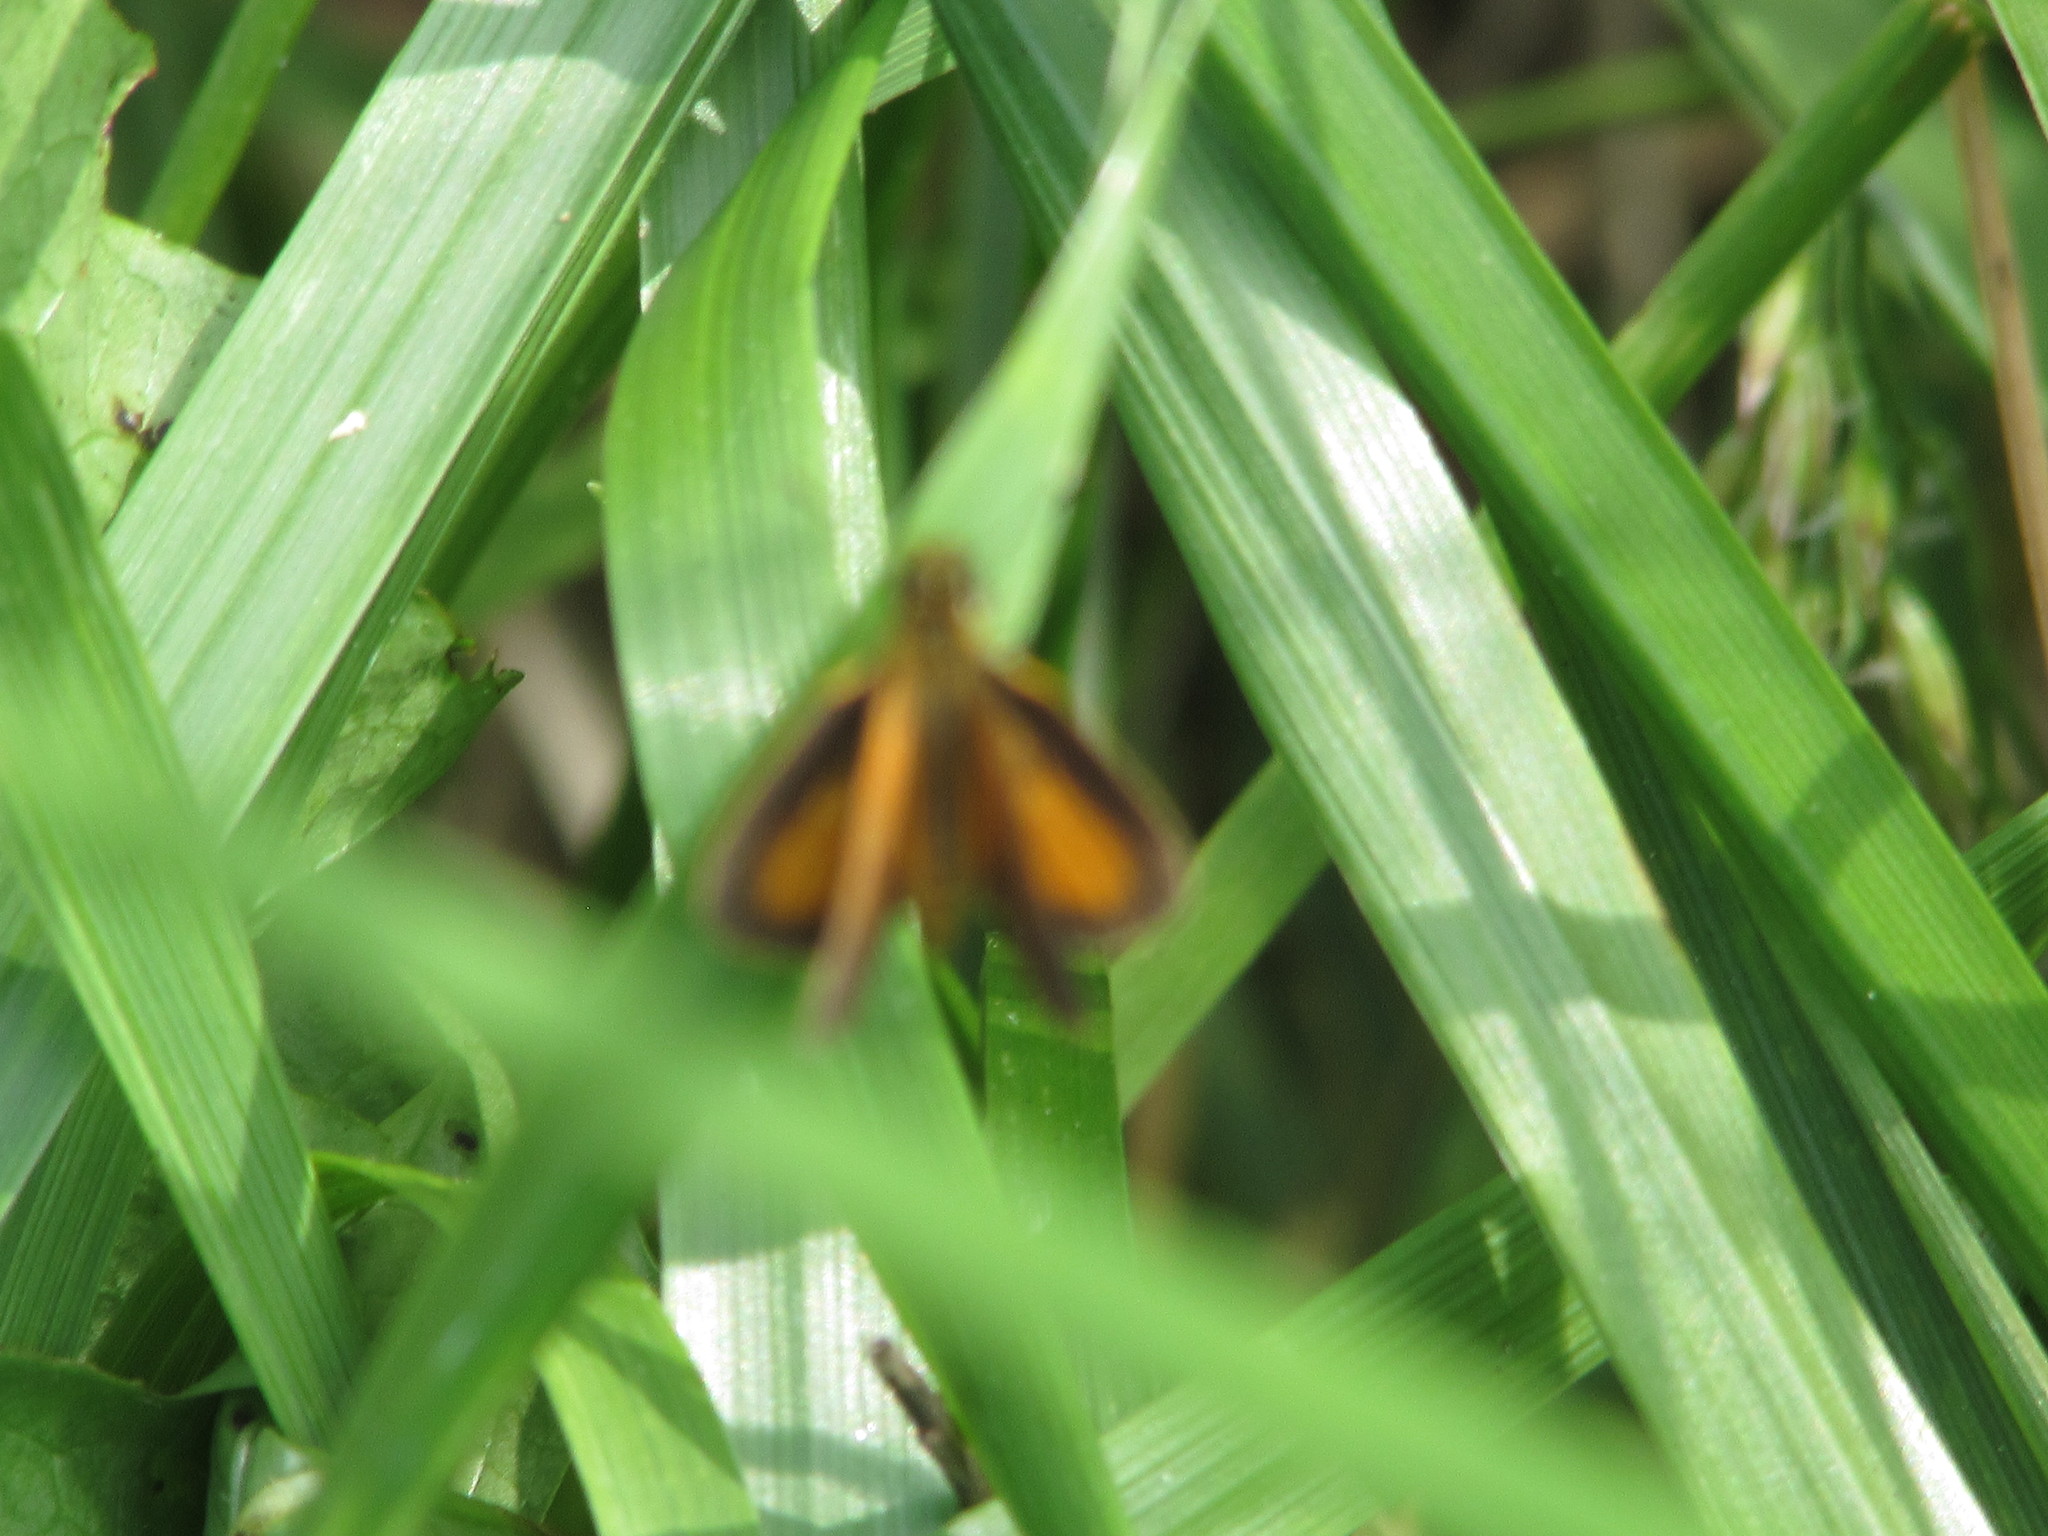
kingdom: Animalia
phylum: Arthropoda
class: Insecta
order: Lepidoptera
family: Hesperiidae
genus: Ancyloxypha
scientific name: Ancyloxypha numitor
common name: Least skipper
